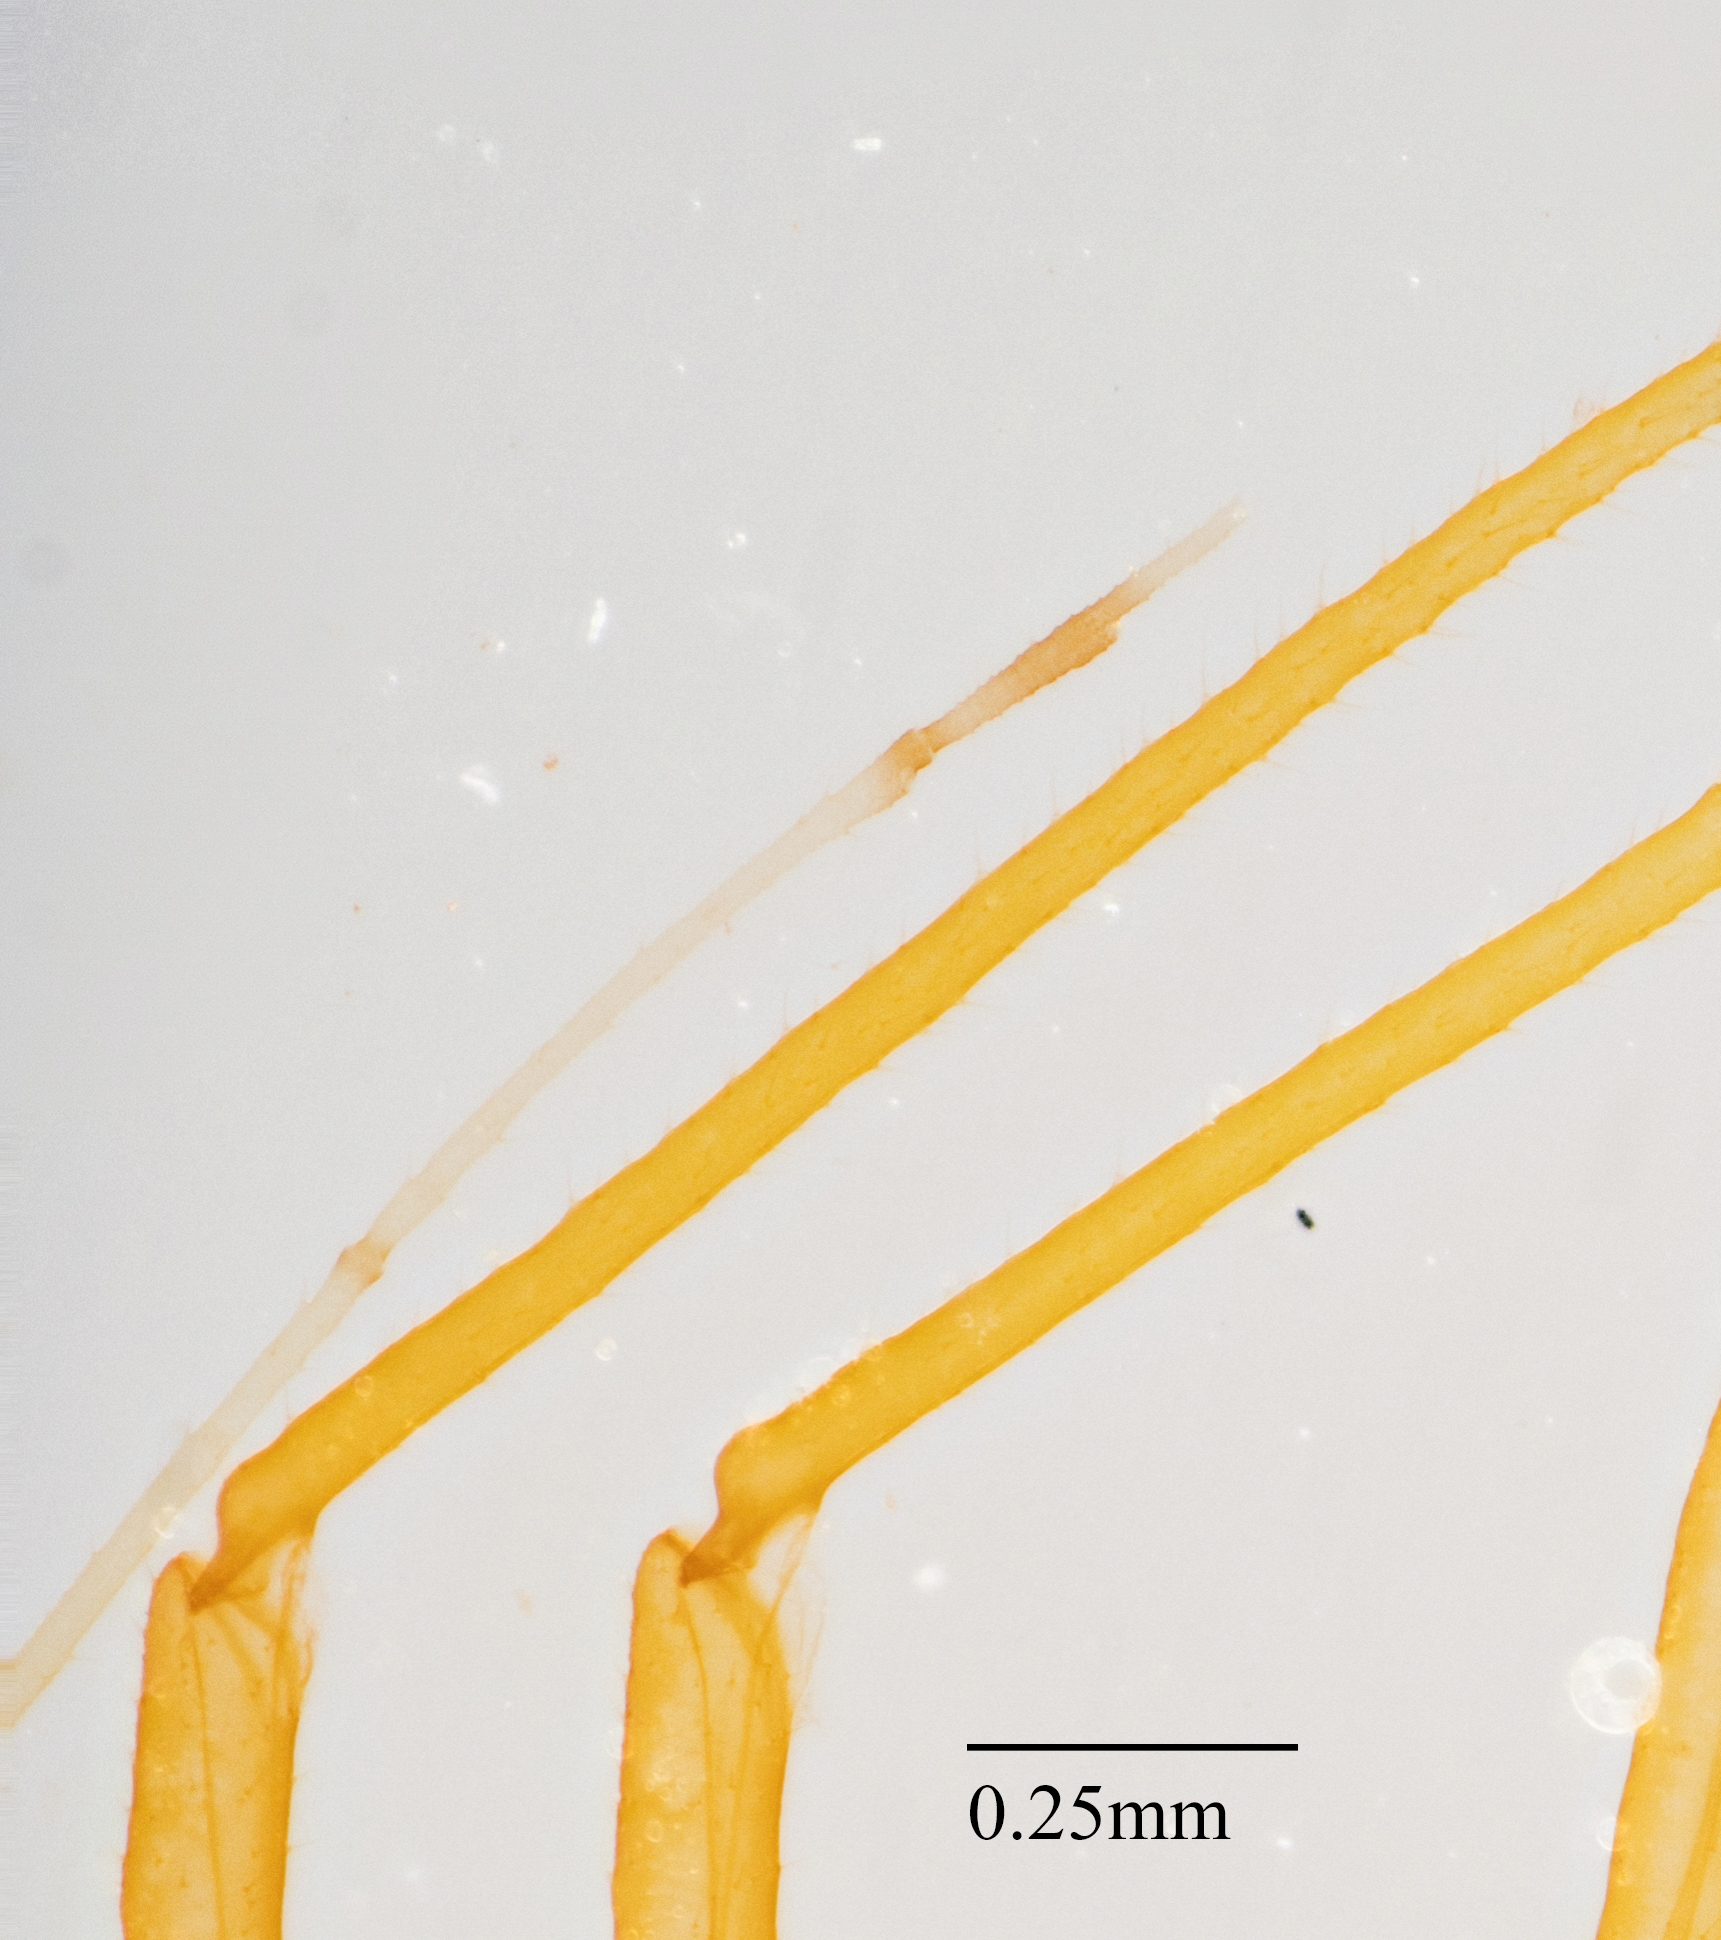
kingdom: Animalia
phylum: Arthropoda
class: Insecta
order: Hemiptera
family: Aphididae
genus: Illinoia
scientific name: Illinoia maxima
